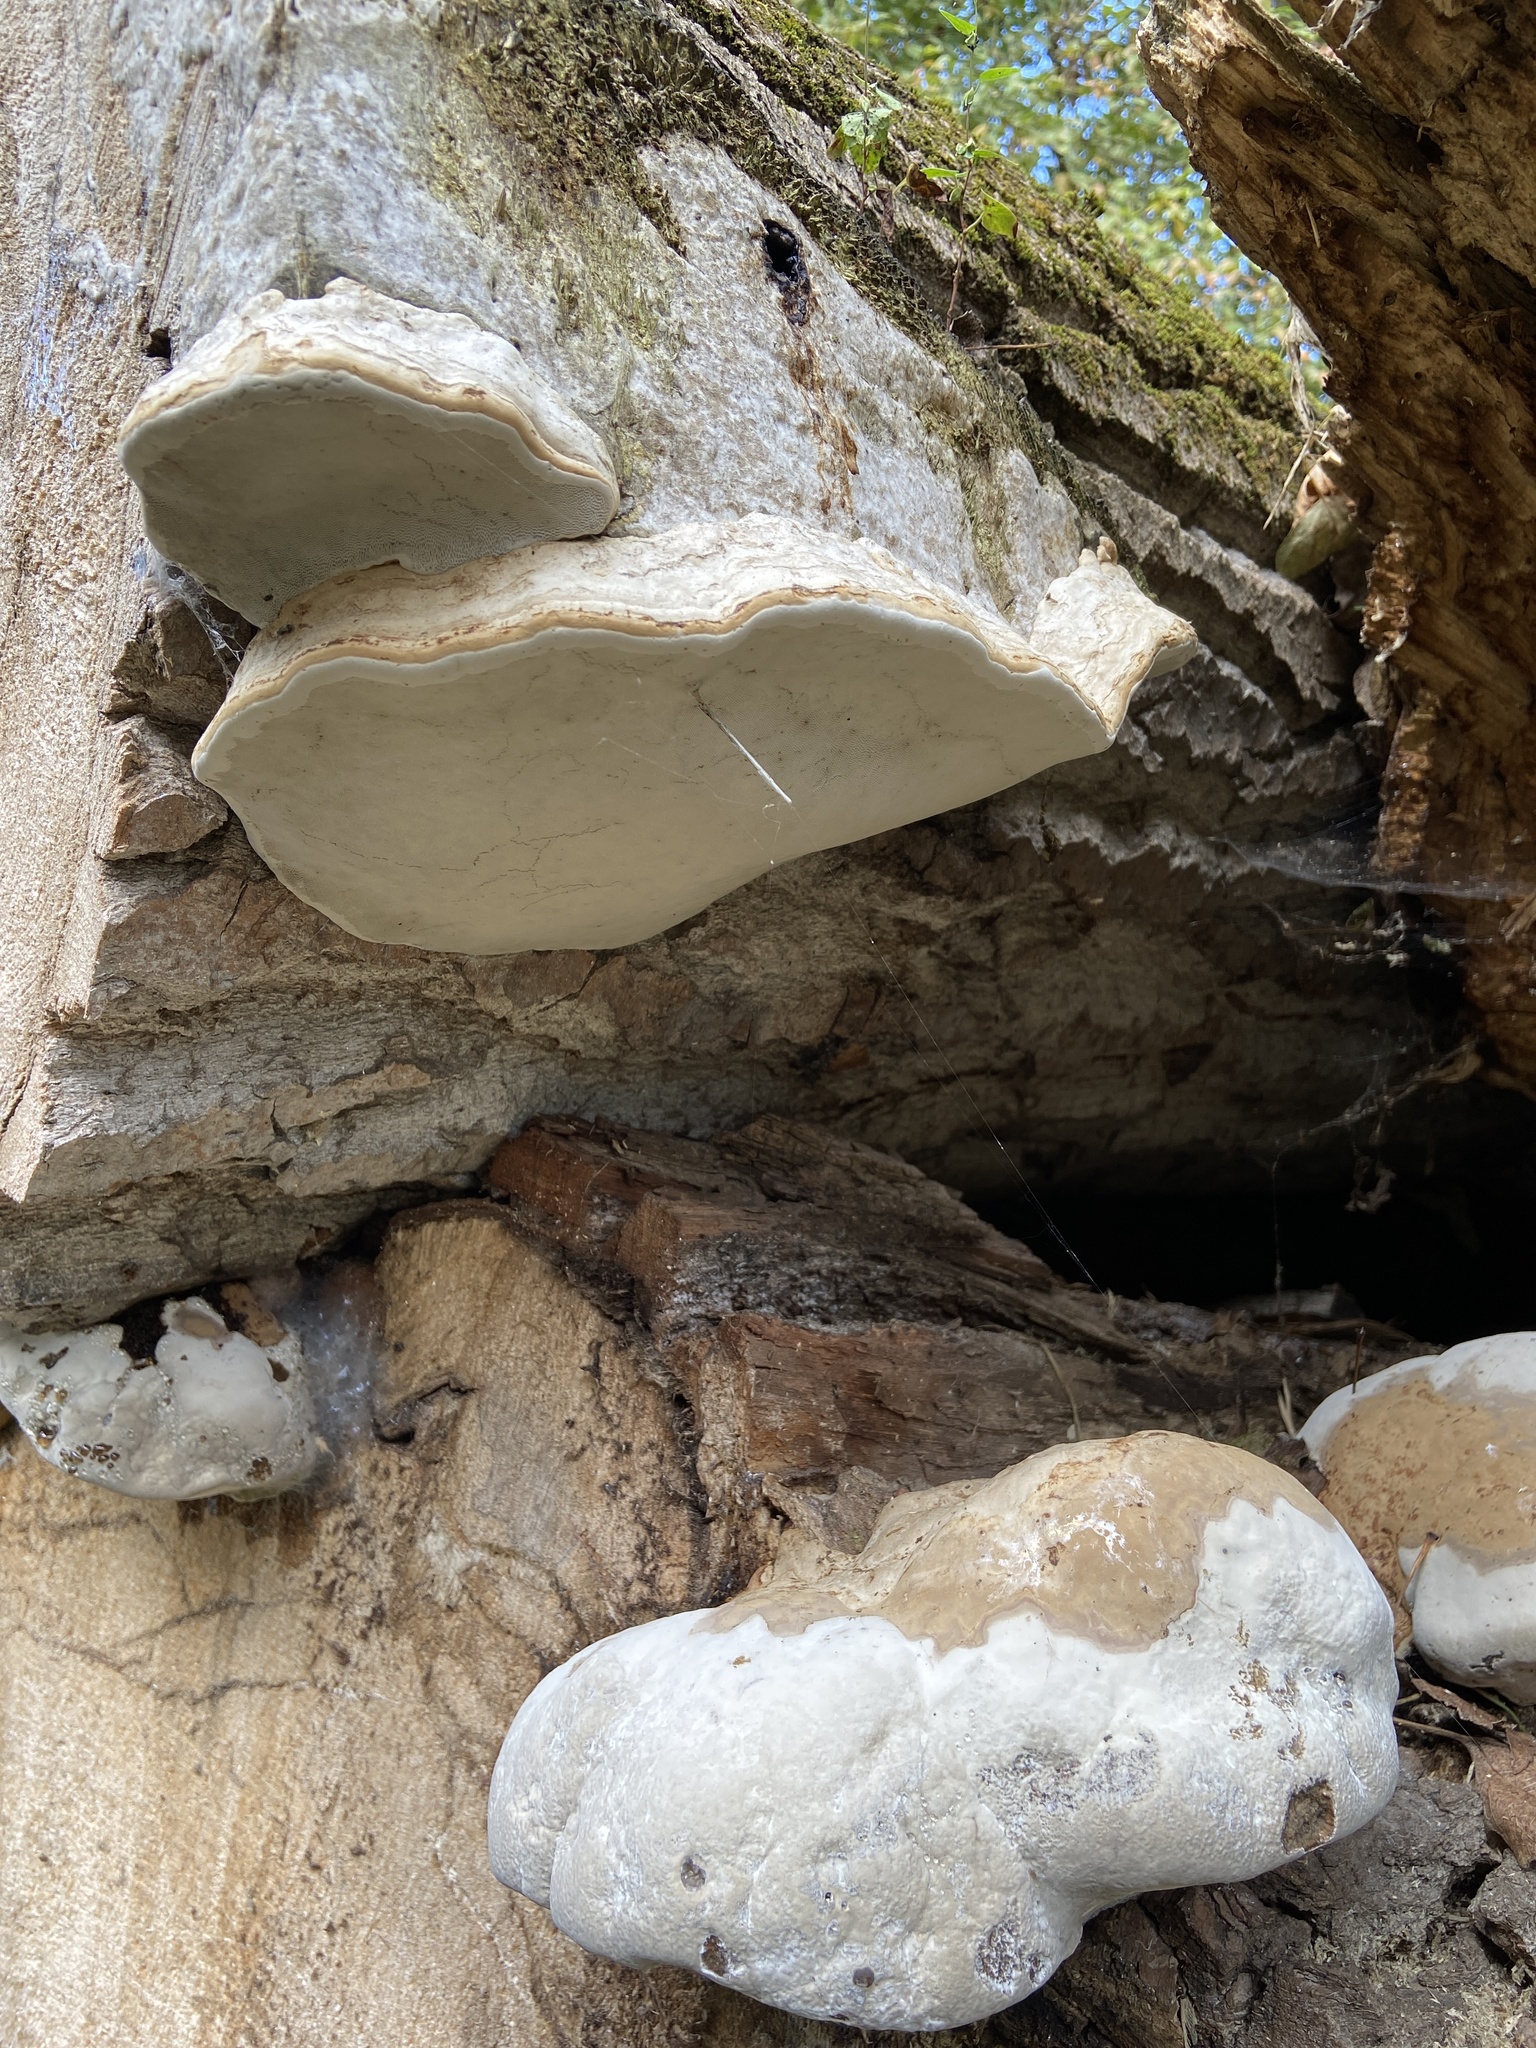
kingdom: Fungi
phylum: Basidiomycota
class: Agaricomycetes
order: Polyporales
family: Polyporaceae
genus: Fomes
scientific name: Fomes fomentarius
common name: Hoof fungus
